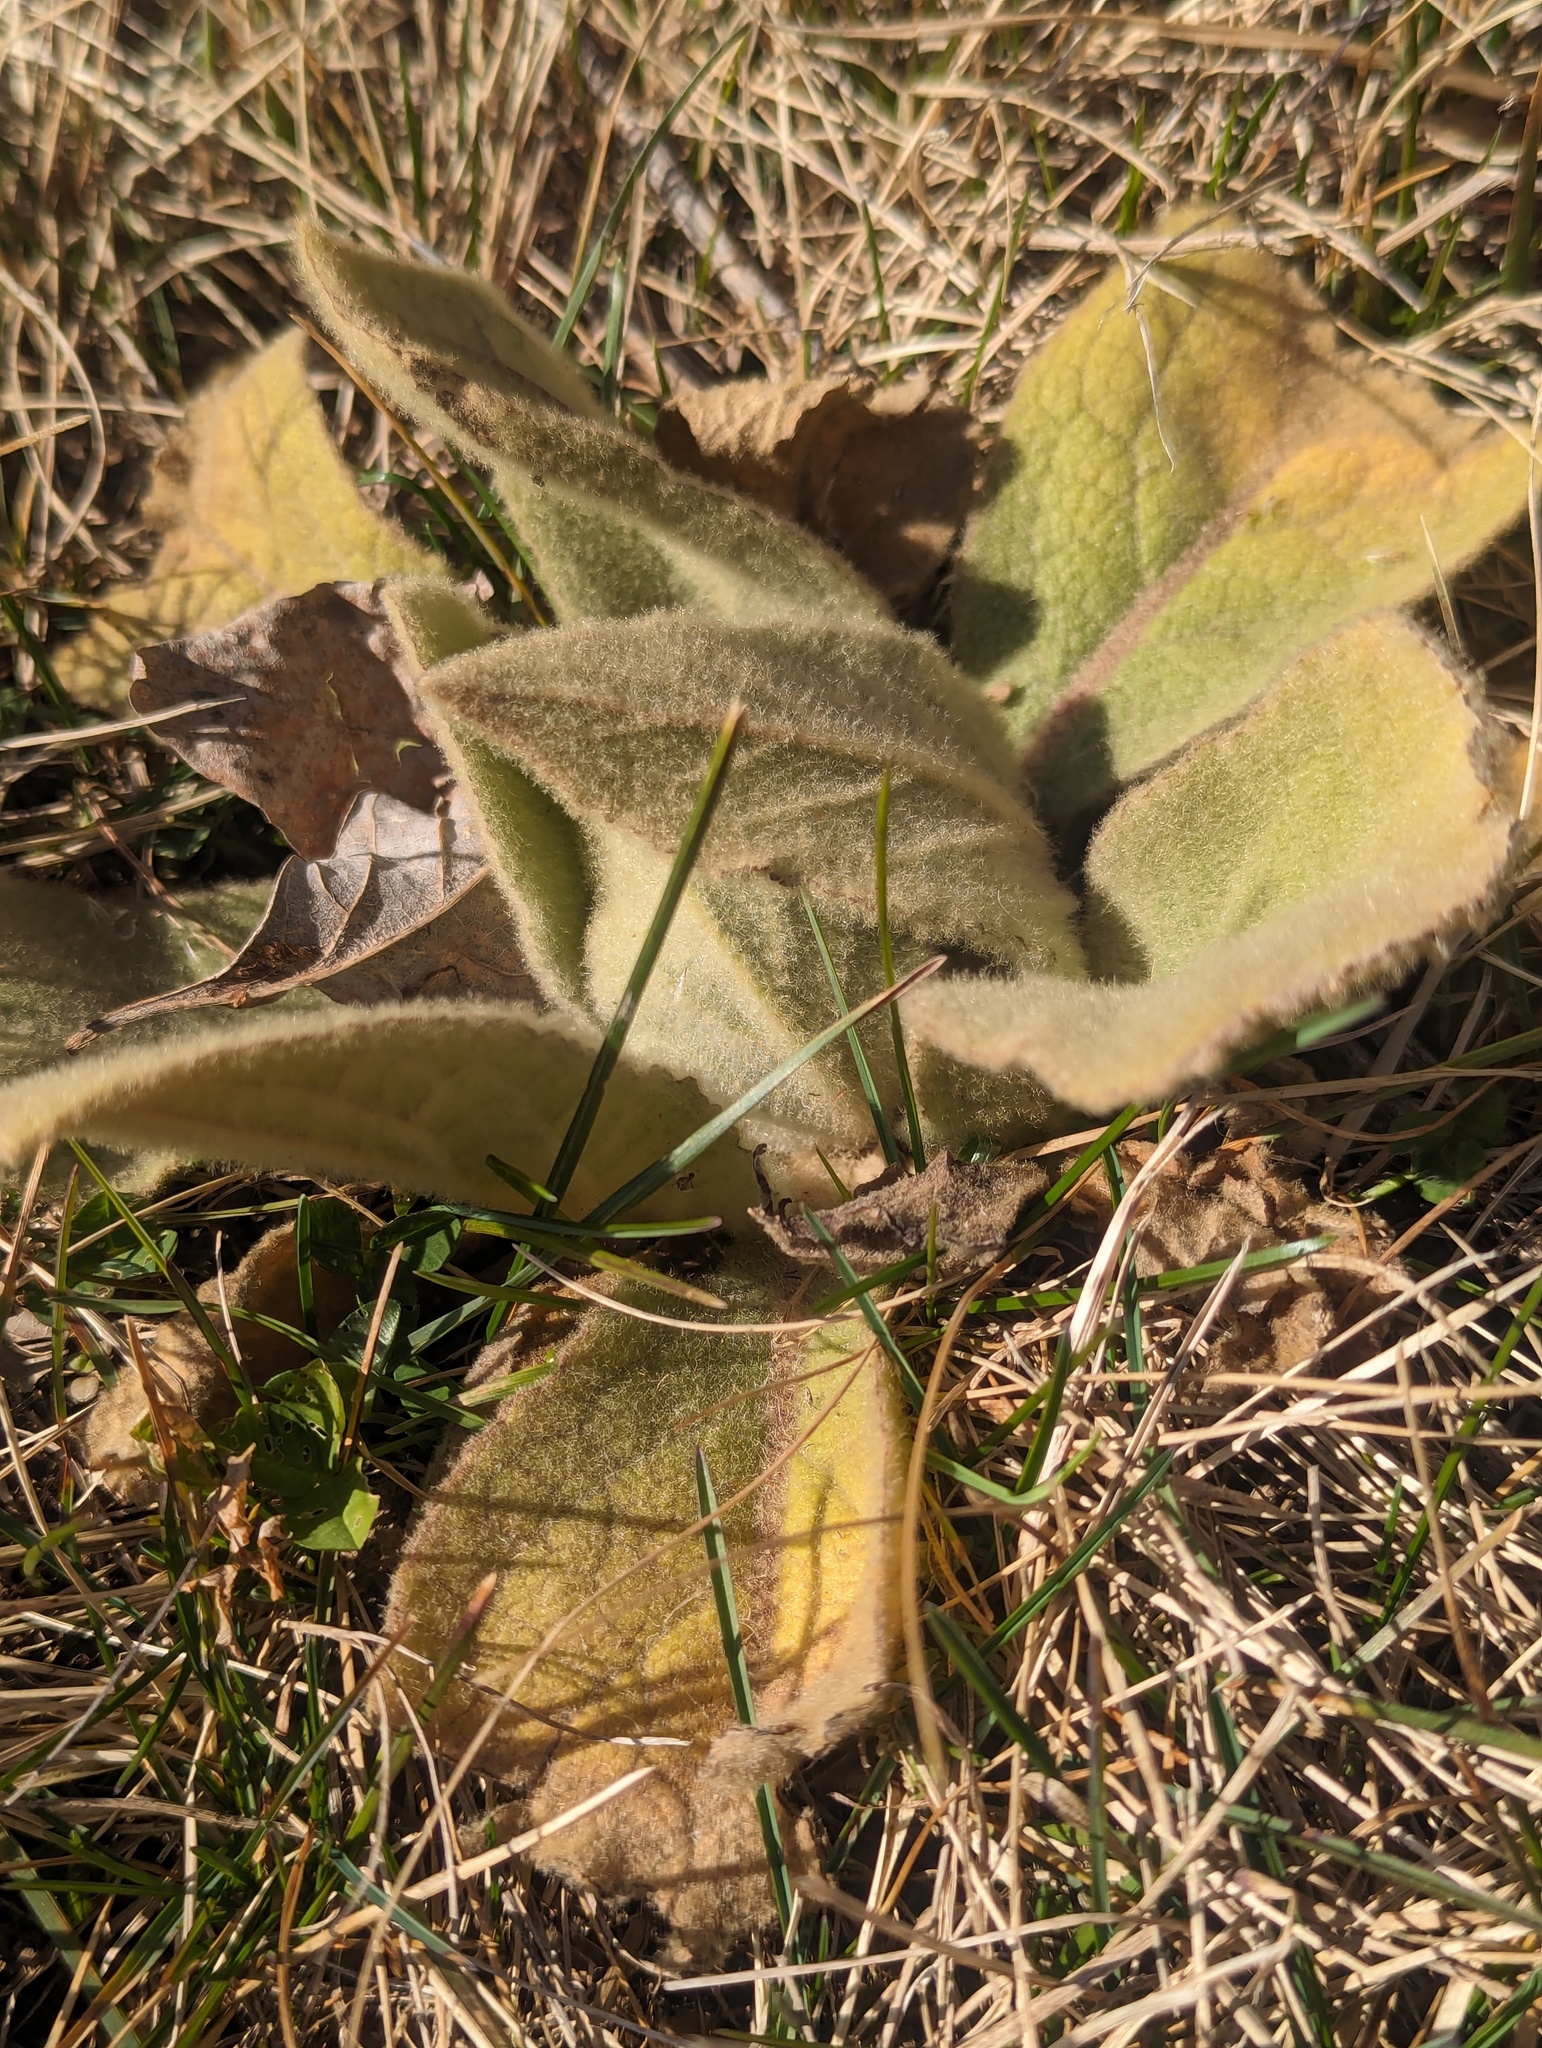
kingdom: Plantae
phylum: Tracheophyta
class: Magnoliopsida
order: Lamiales
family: Scrophulariaceae
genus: Verbascum
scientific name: Verbascum thapsus
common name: Common mullein
